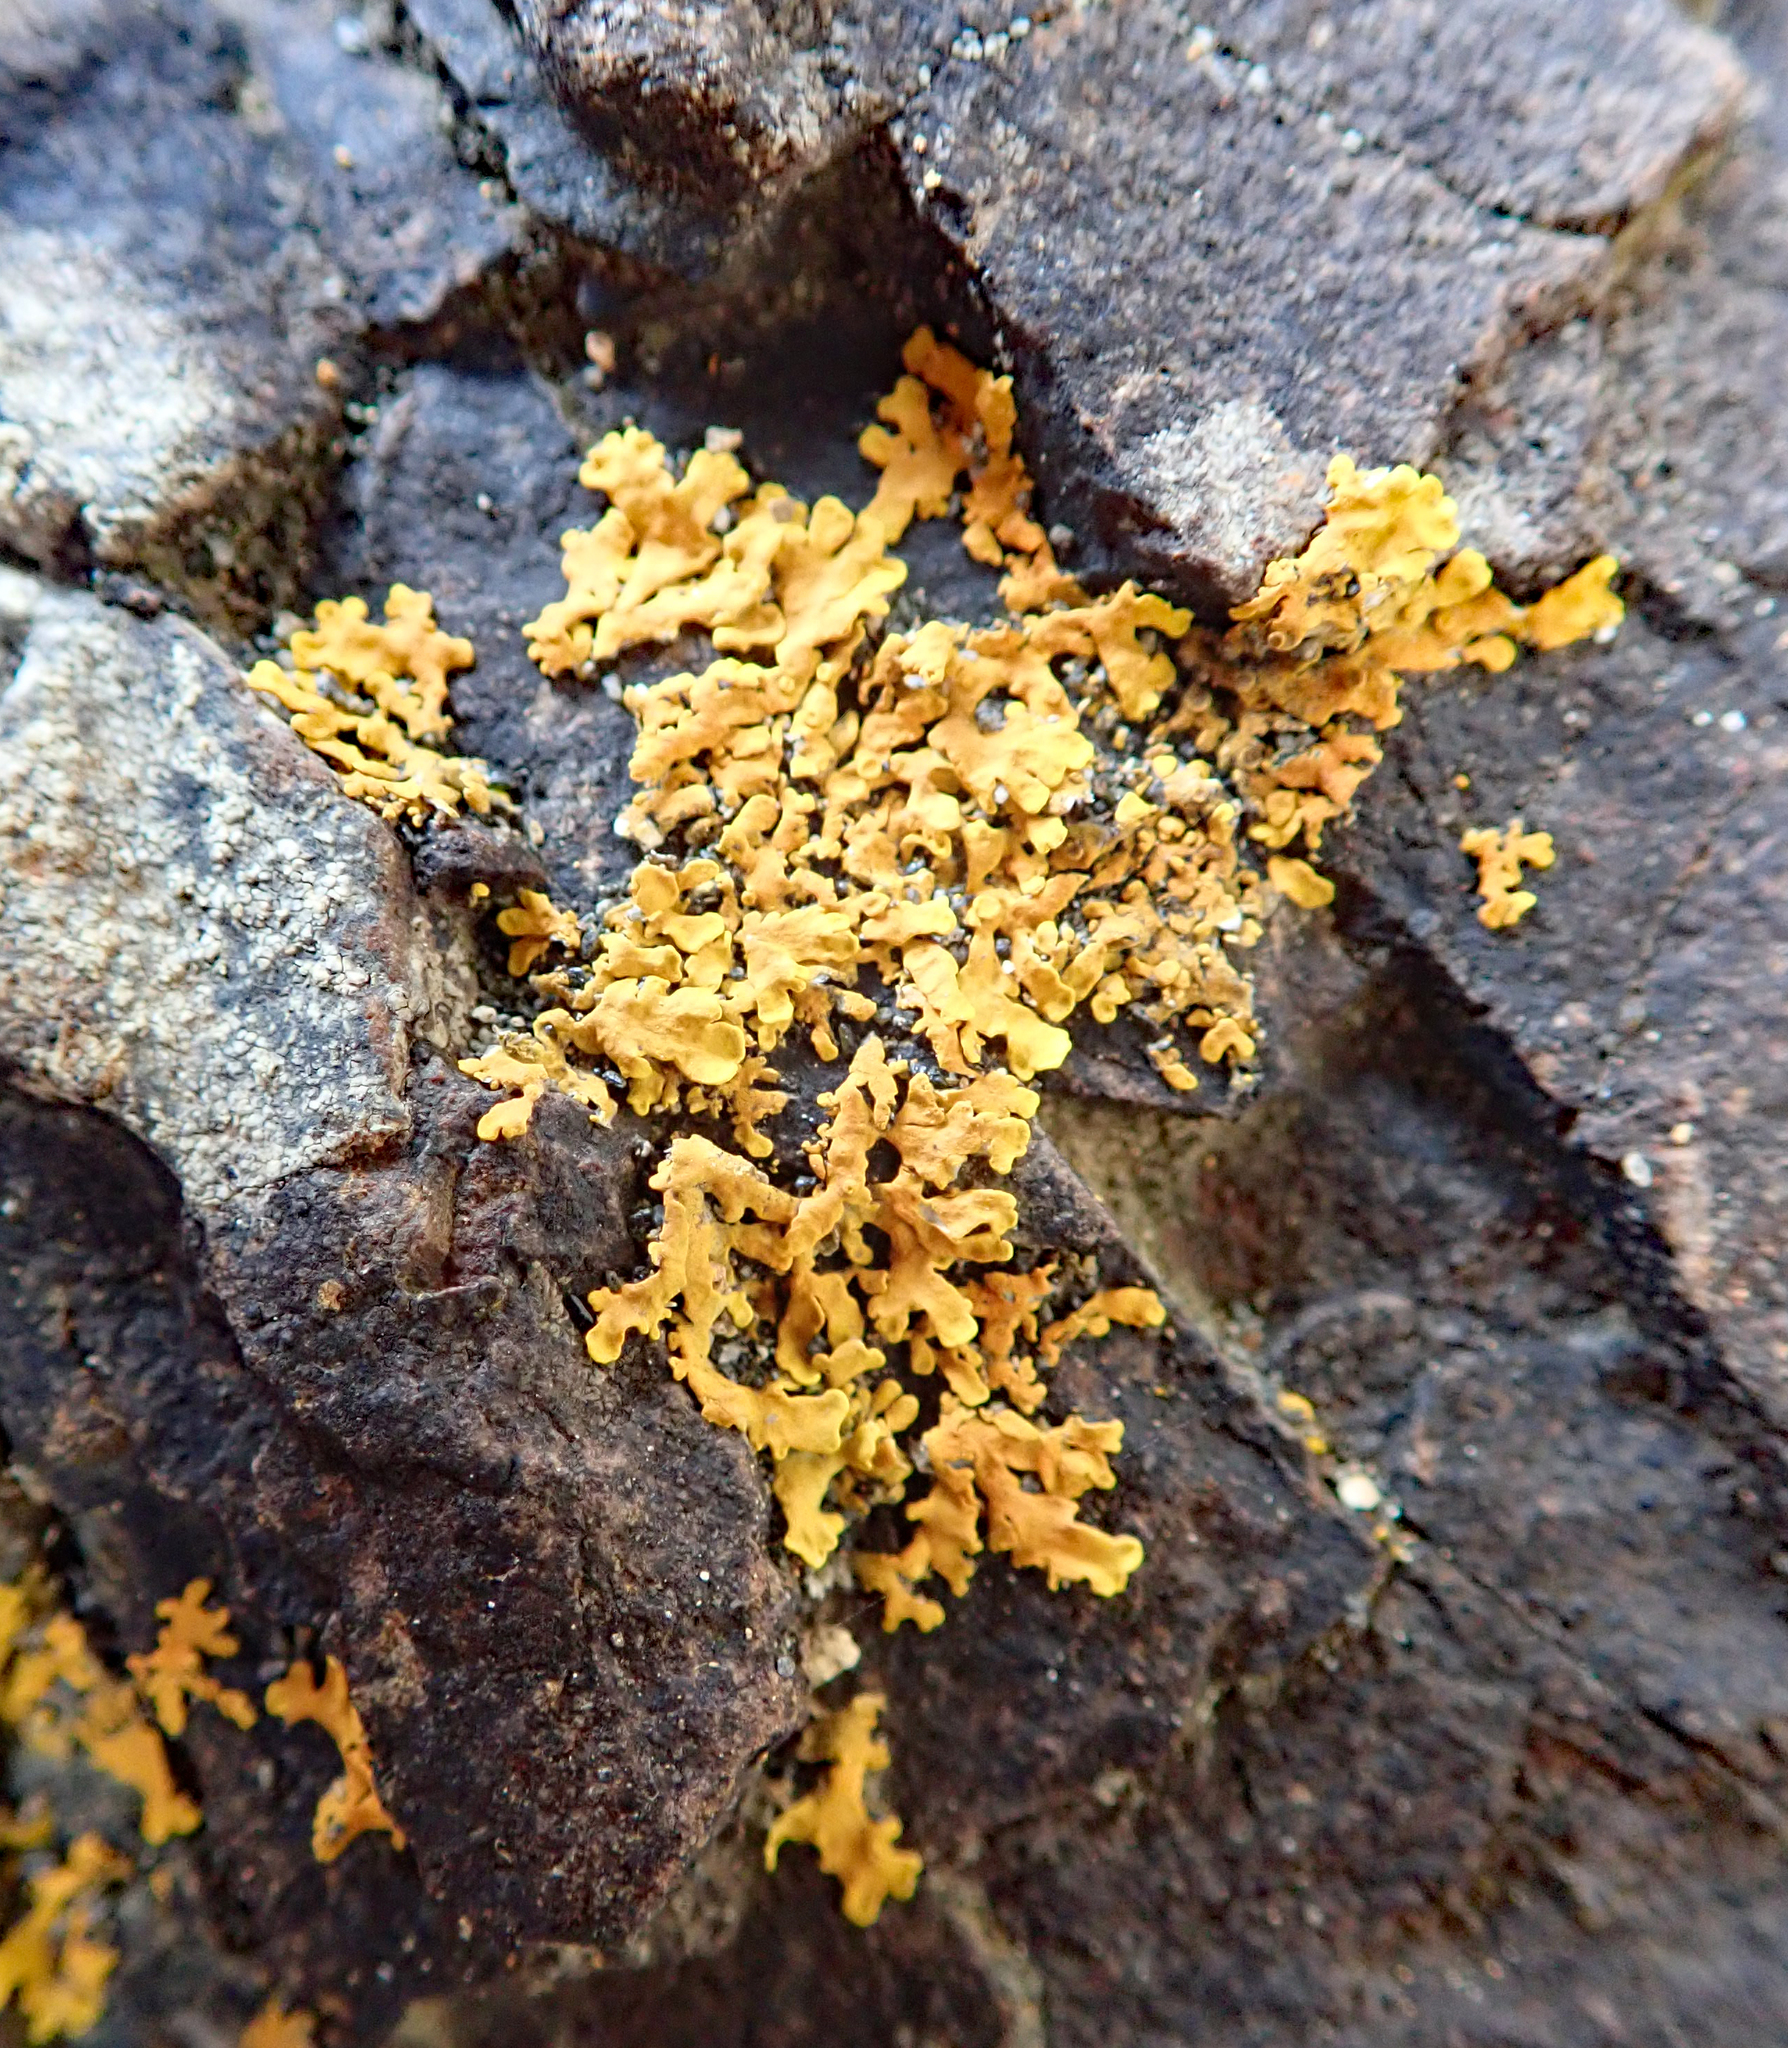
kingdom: Fungi
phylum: Ascomycota
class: Lecanoromycetes
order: Teloschistales
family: Teloschistaceae
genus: Dufourea
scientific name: Dufourea ligulata
